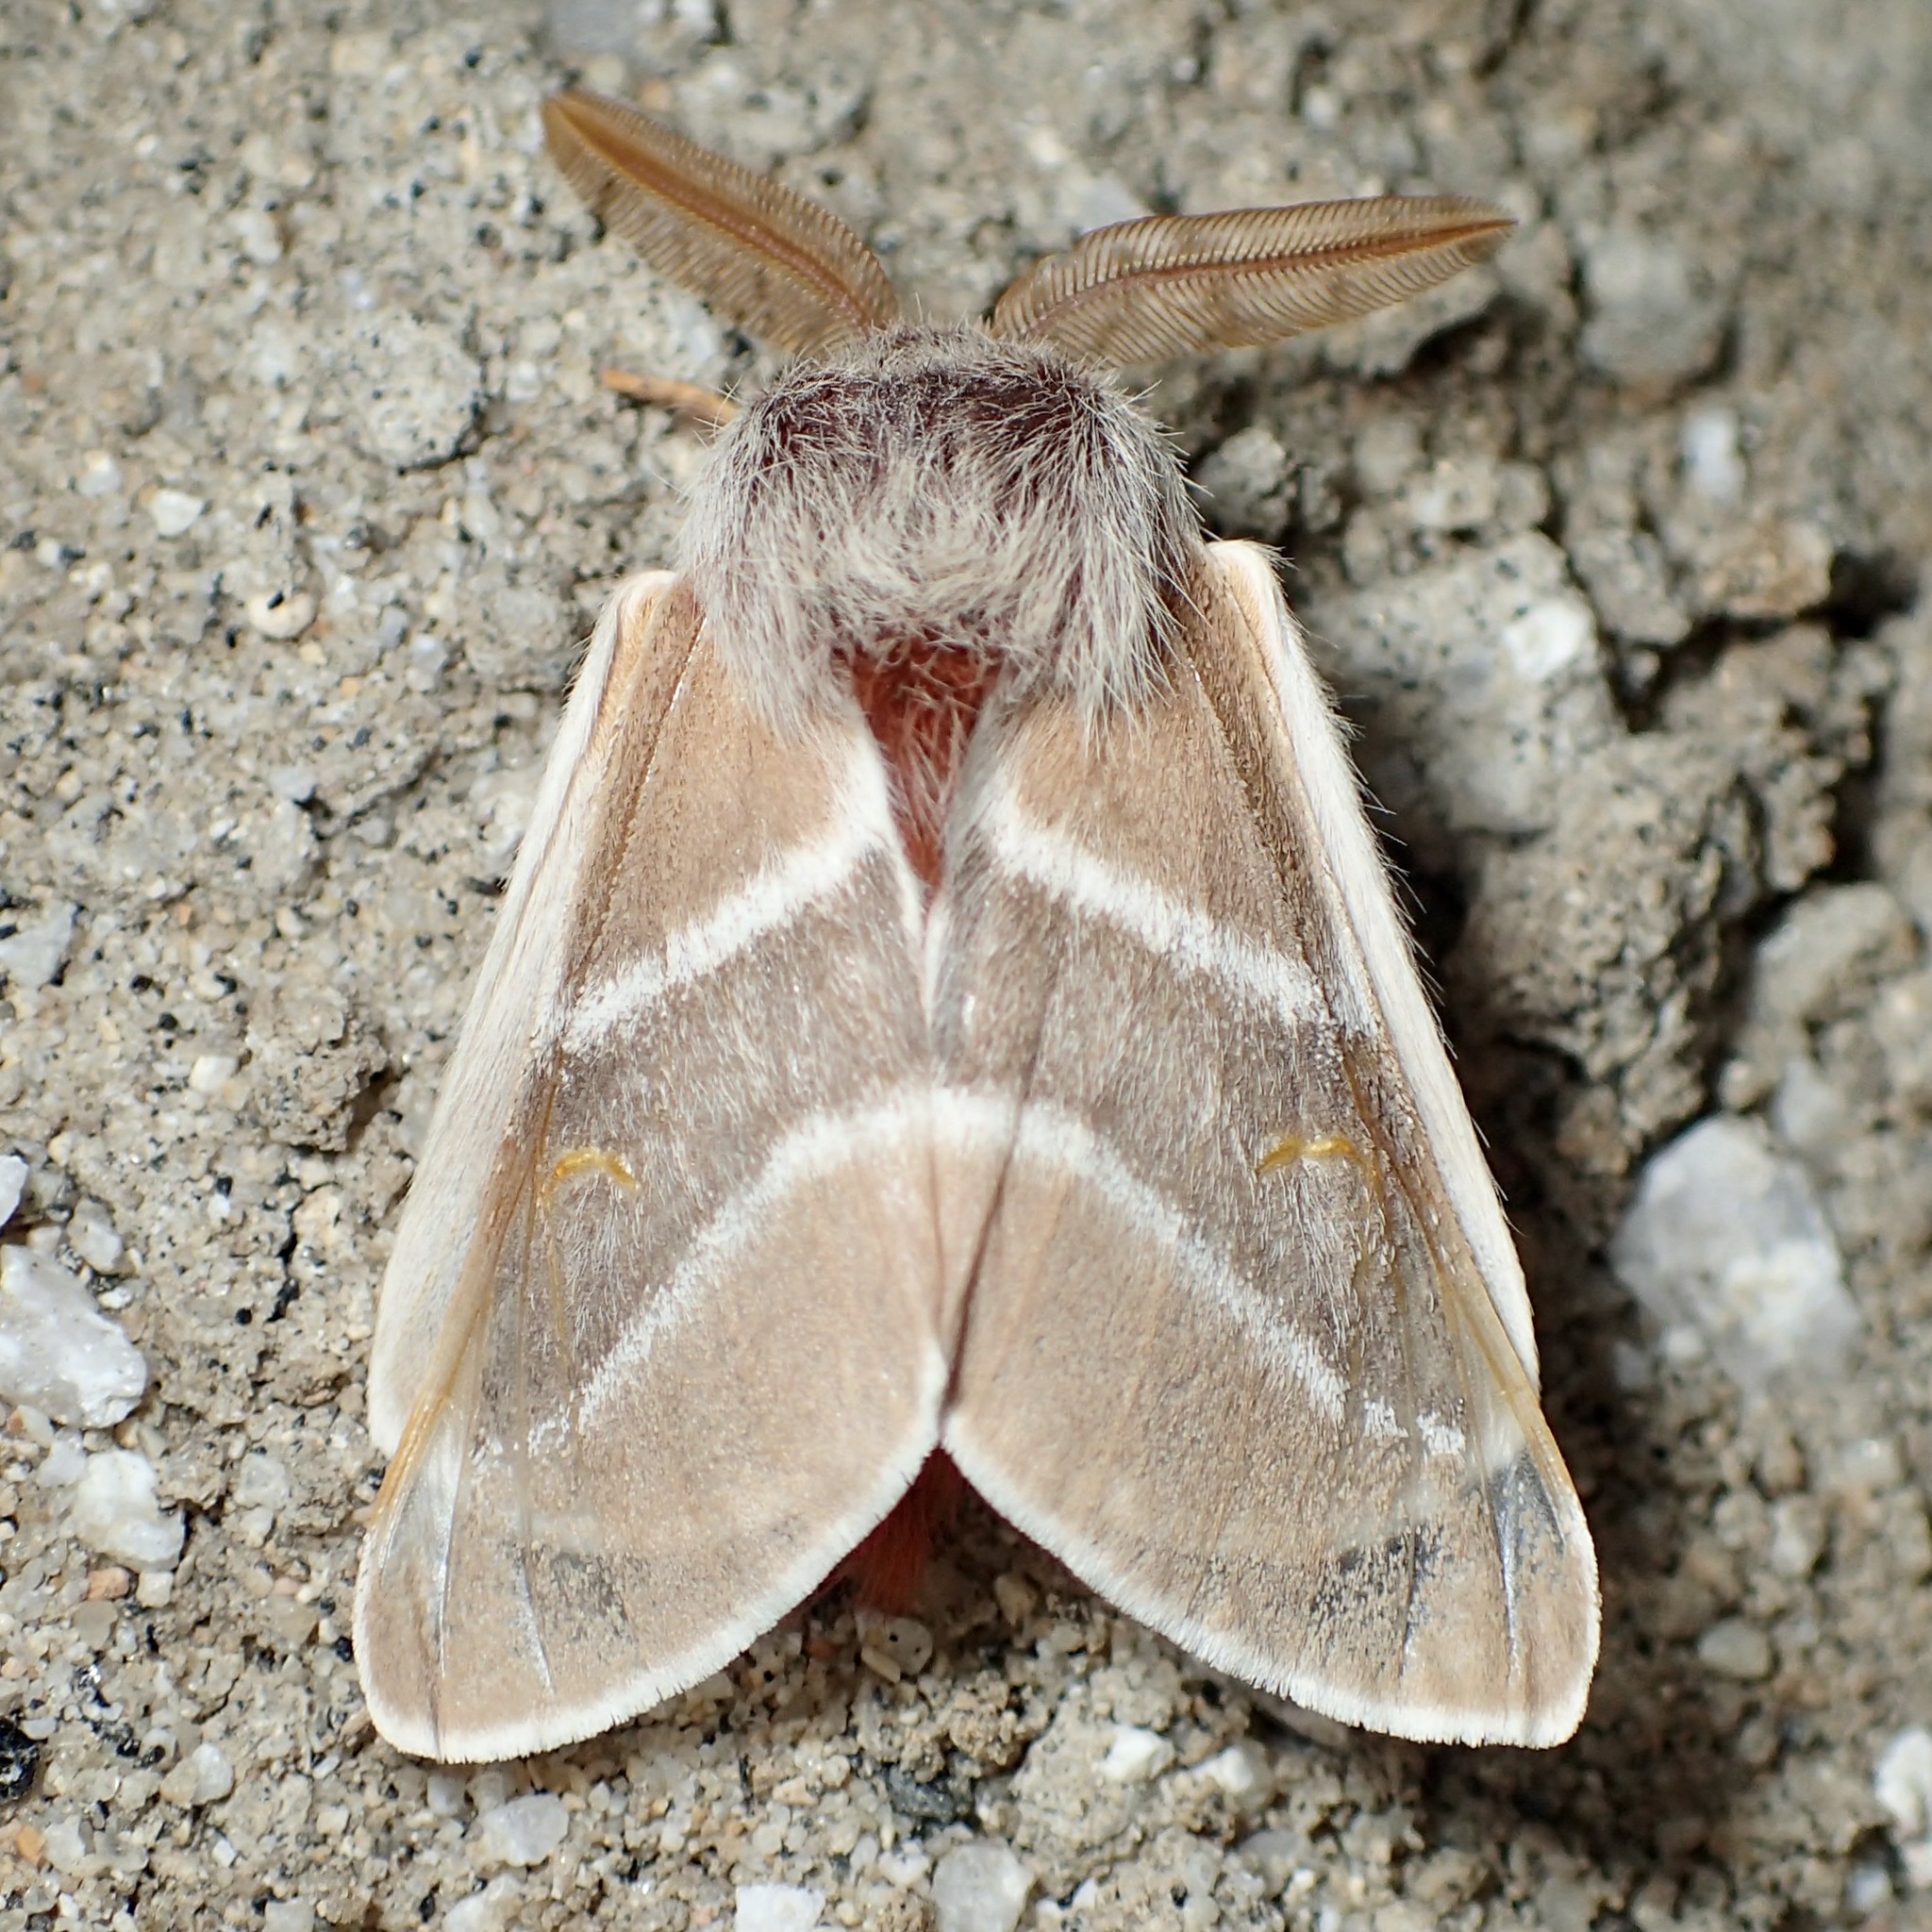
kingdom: Animalia
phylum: Arthropoda
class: Insecta
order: Lepidoptera
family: Saturniidae
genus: Hemileuca
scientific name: Hemileuca sororius
